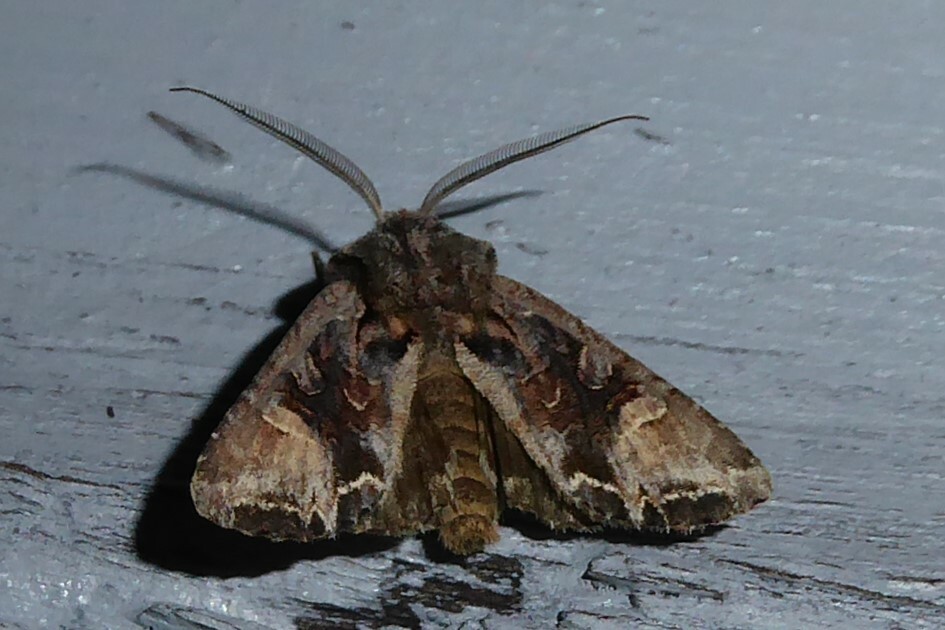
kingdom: Animalia
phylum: Arthropoda
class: Insecta
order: Lepidoptera
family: Noctuidae
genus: Ichneutica
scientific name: Ichneutica
